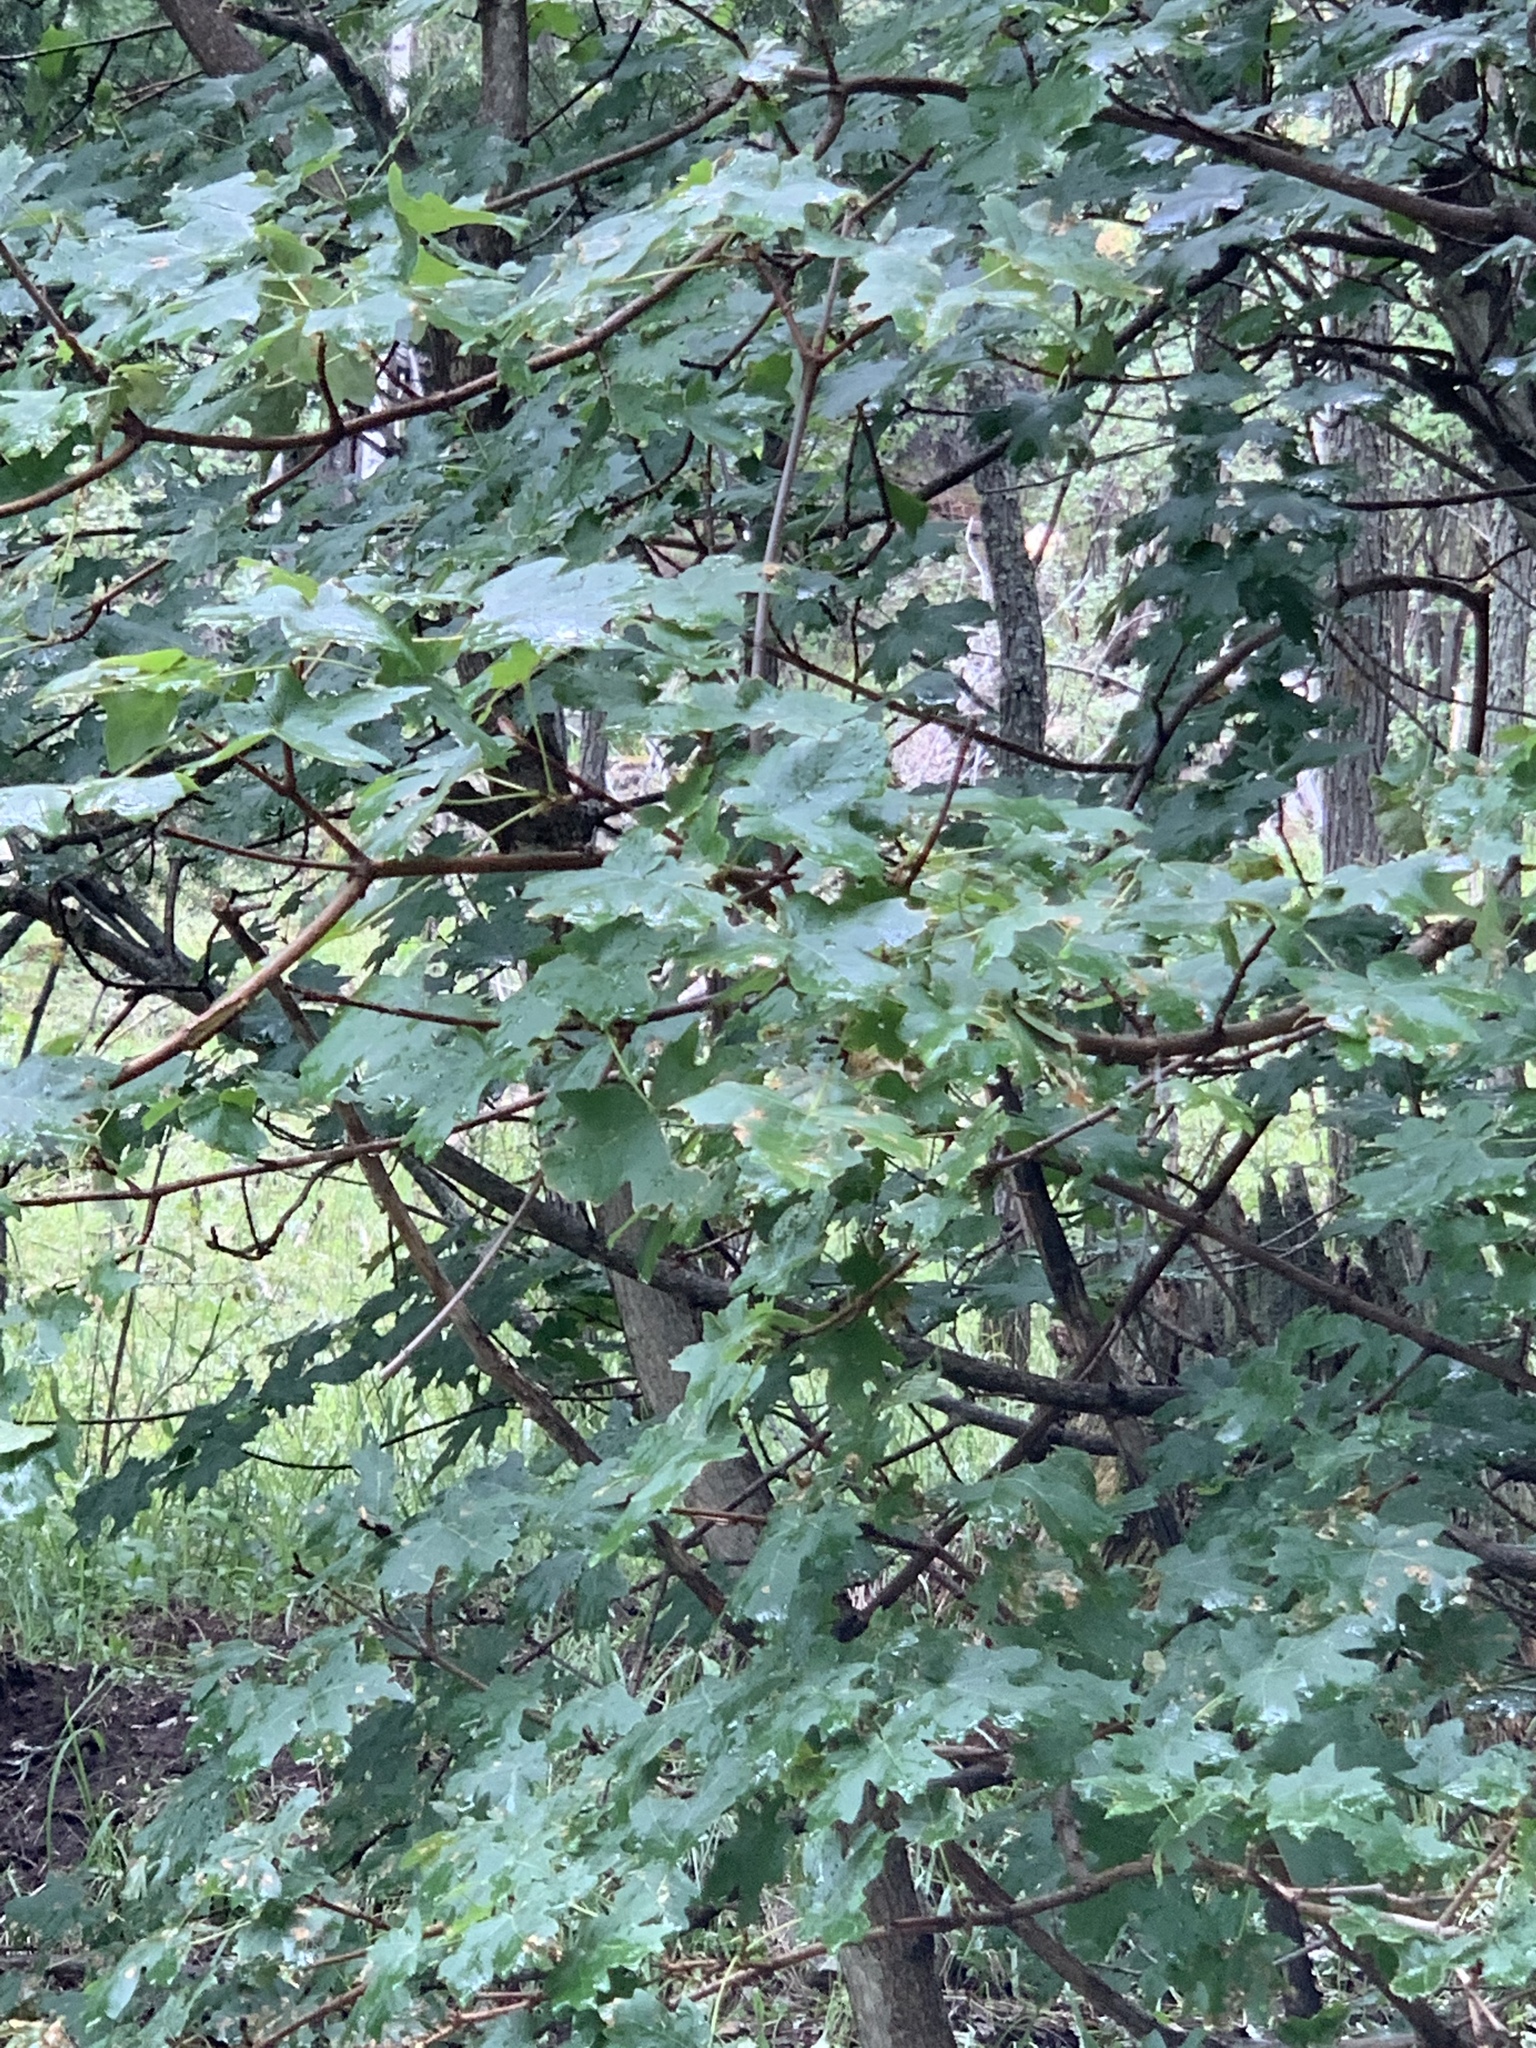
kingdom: Plantae
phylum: Tracheophyta
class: Magnoliopsida
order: Sapindales
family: Sapindaceae
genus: Acer
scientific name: Acer grandidentatum
